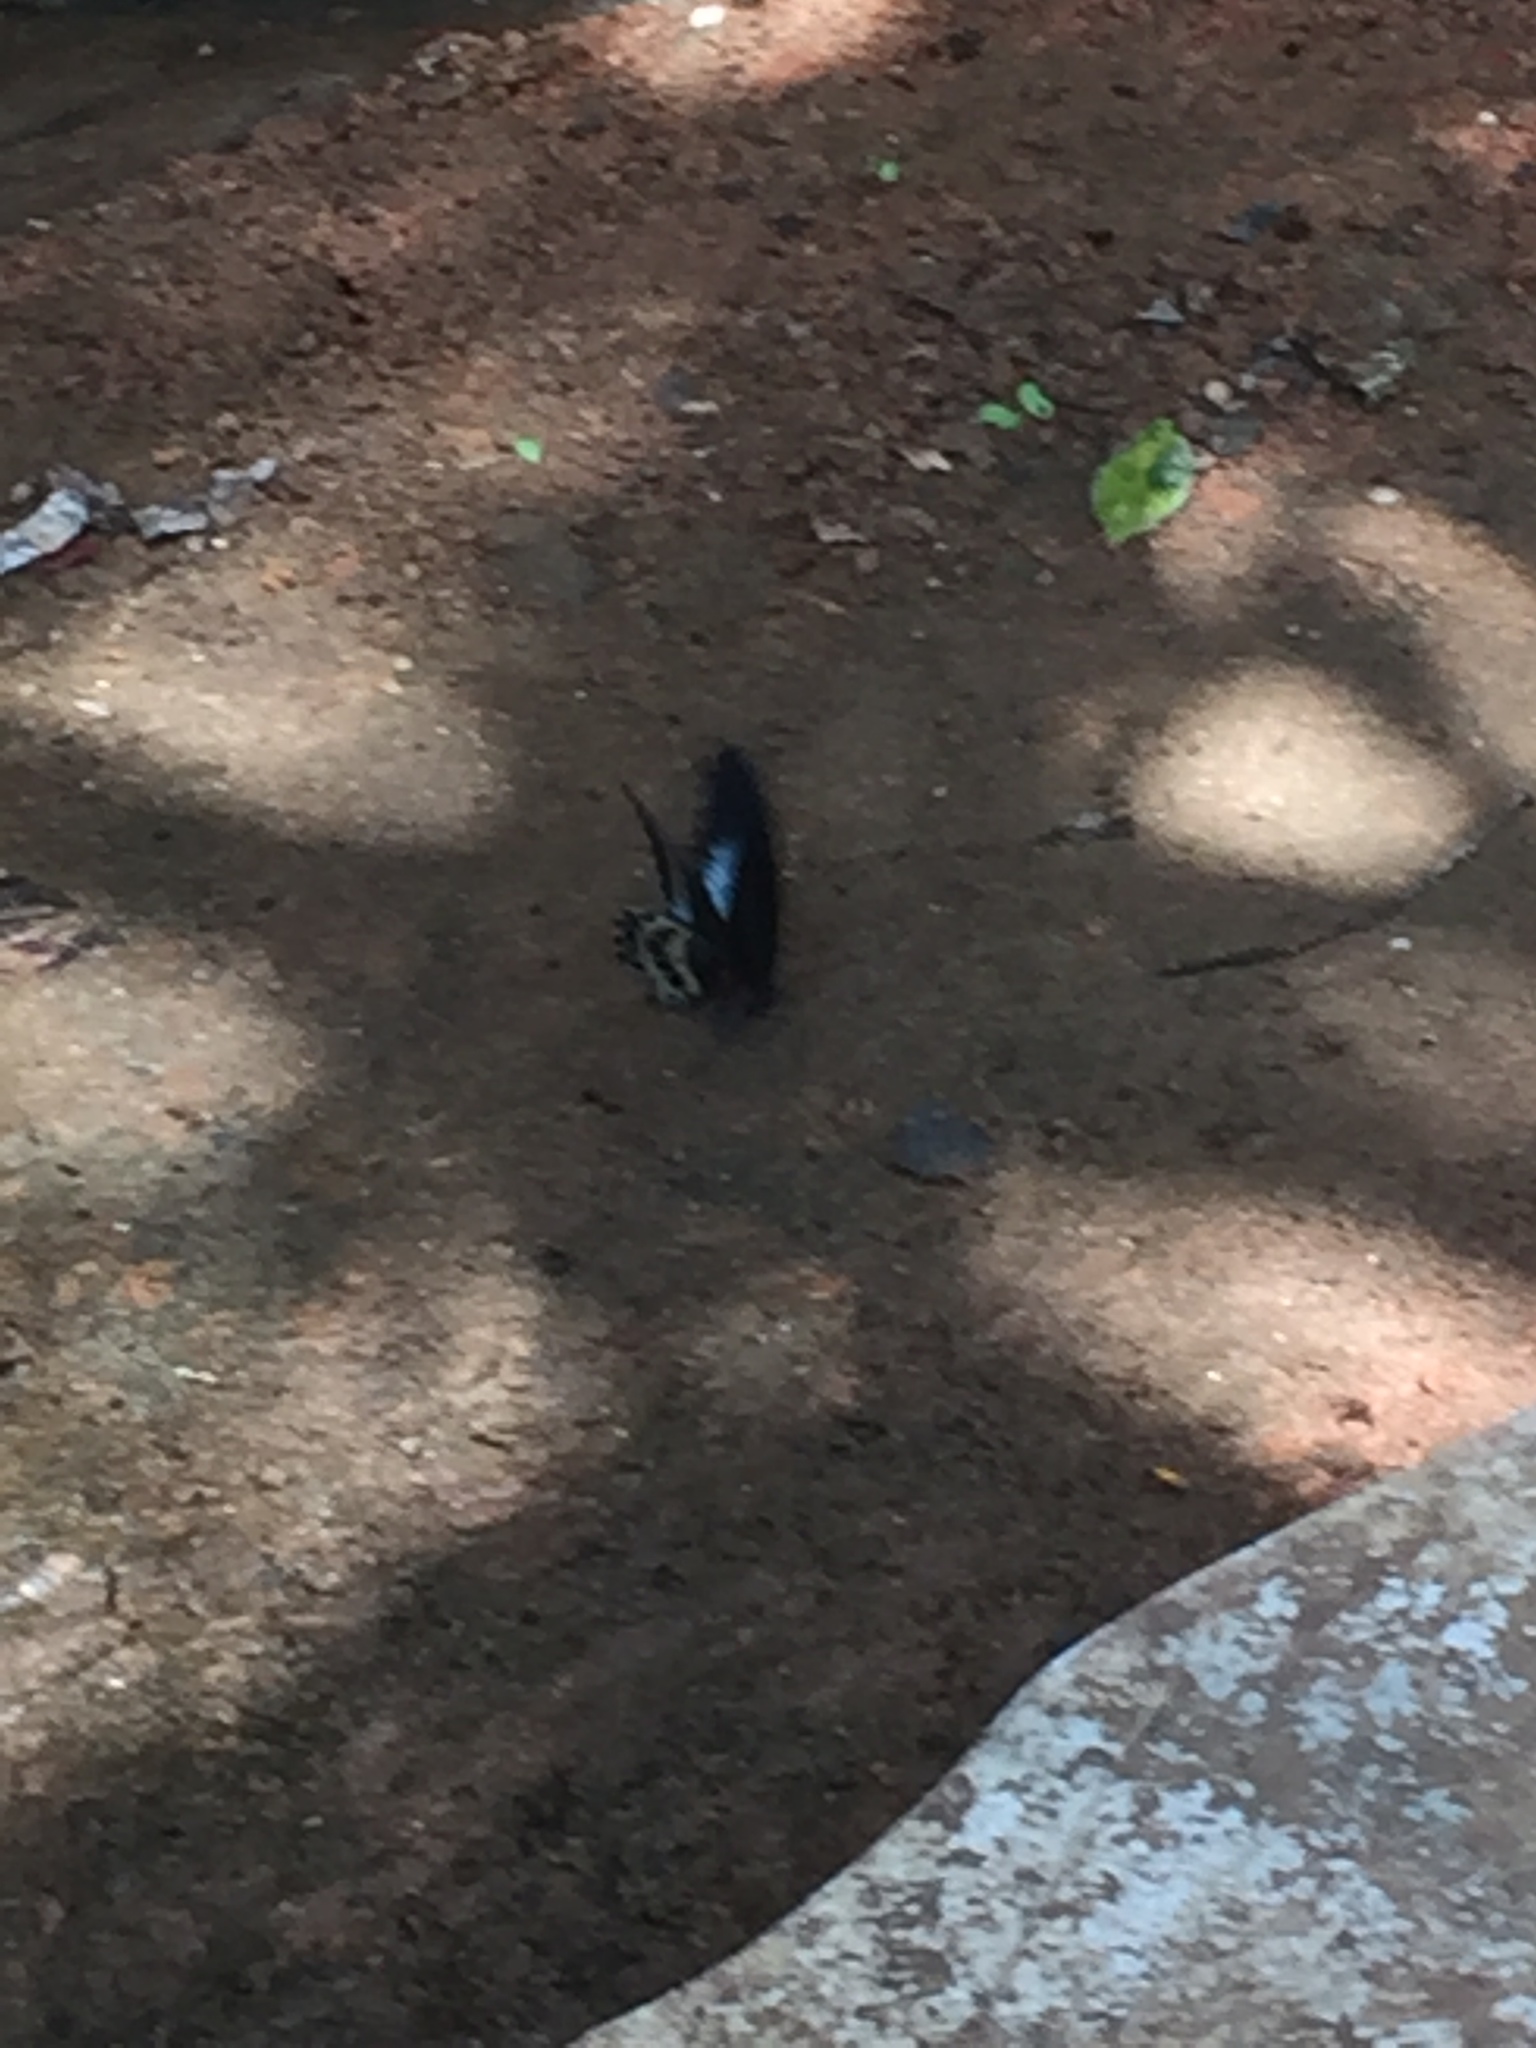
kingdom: Animalia
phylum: Arthropoda
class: Insecta
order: Lepidoptera
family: Papilionidae
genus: Papilio
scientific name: Papilio memnon
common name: Great mormon
